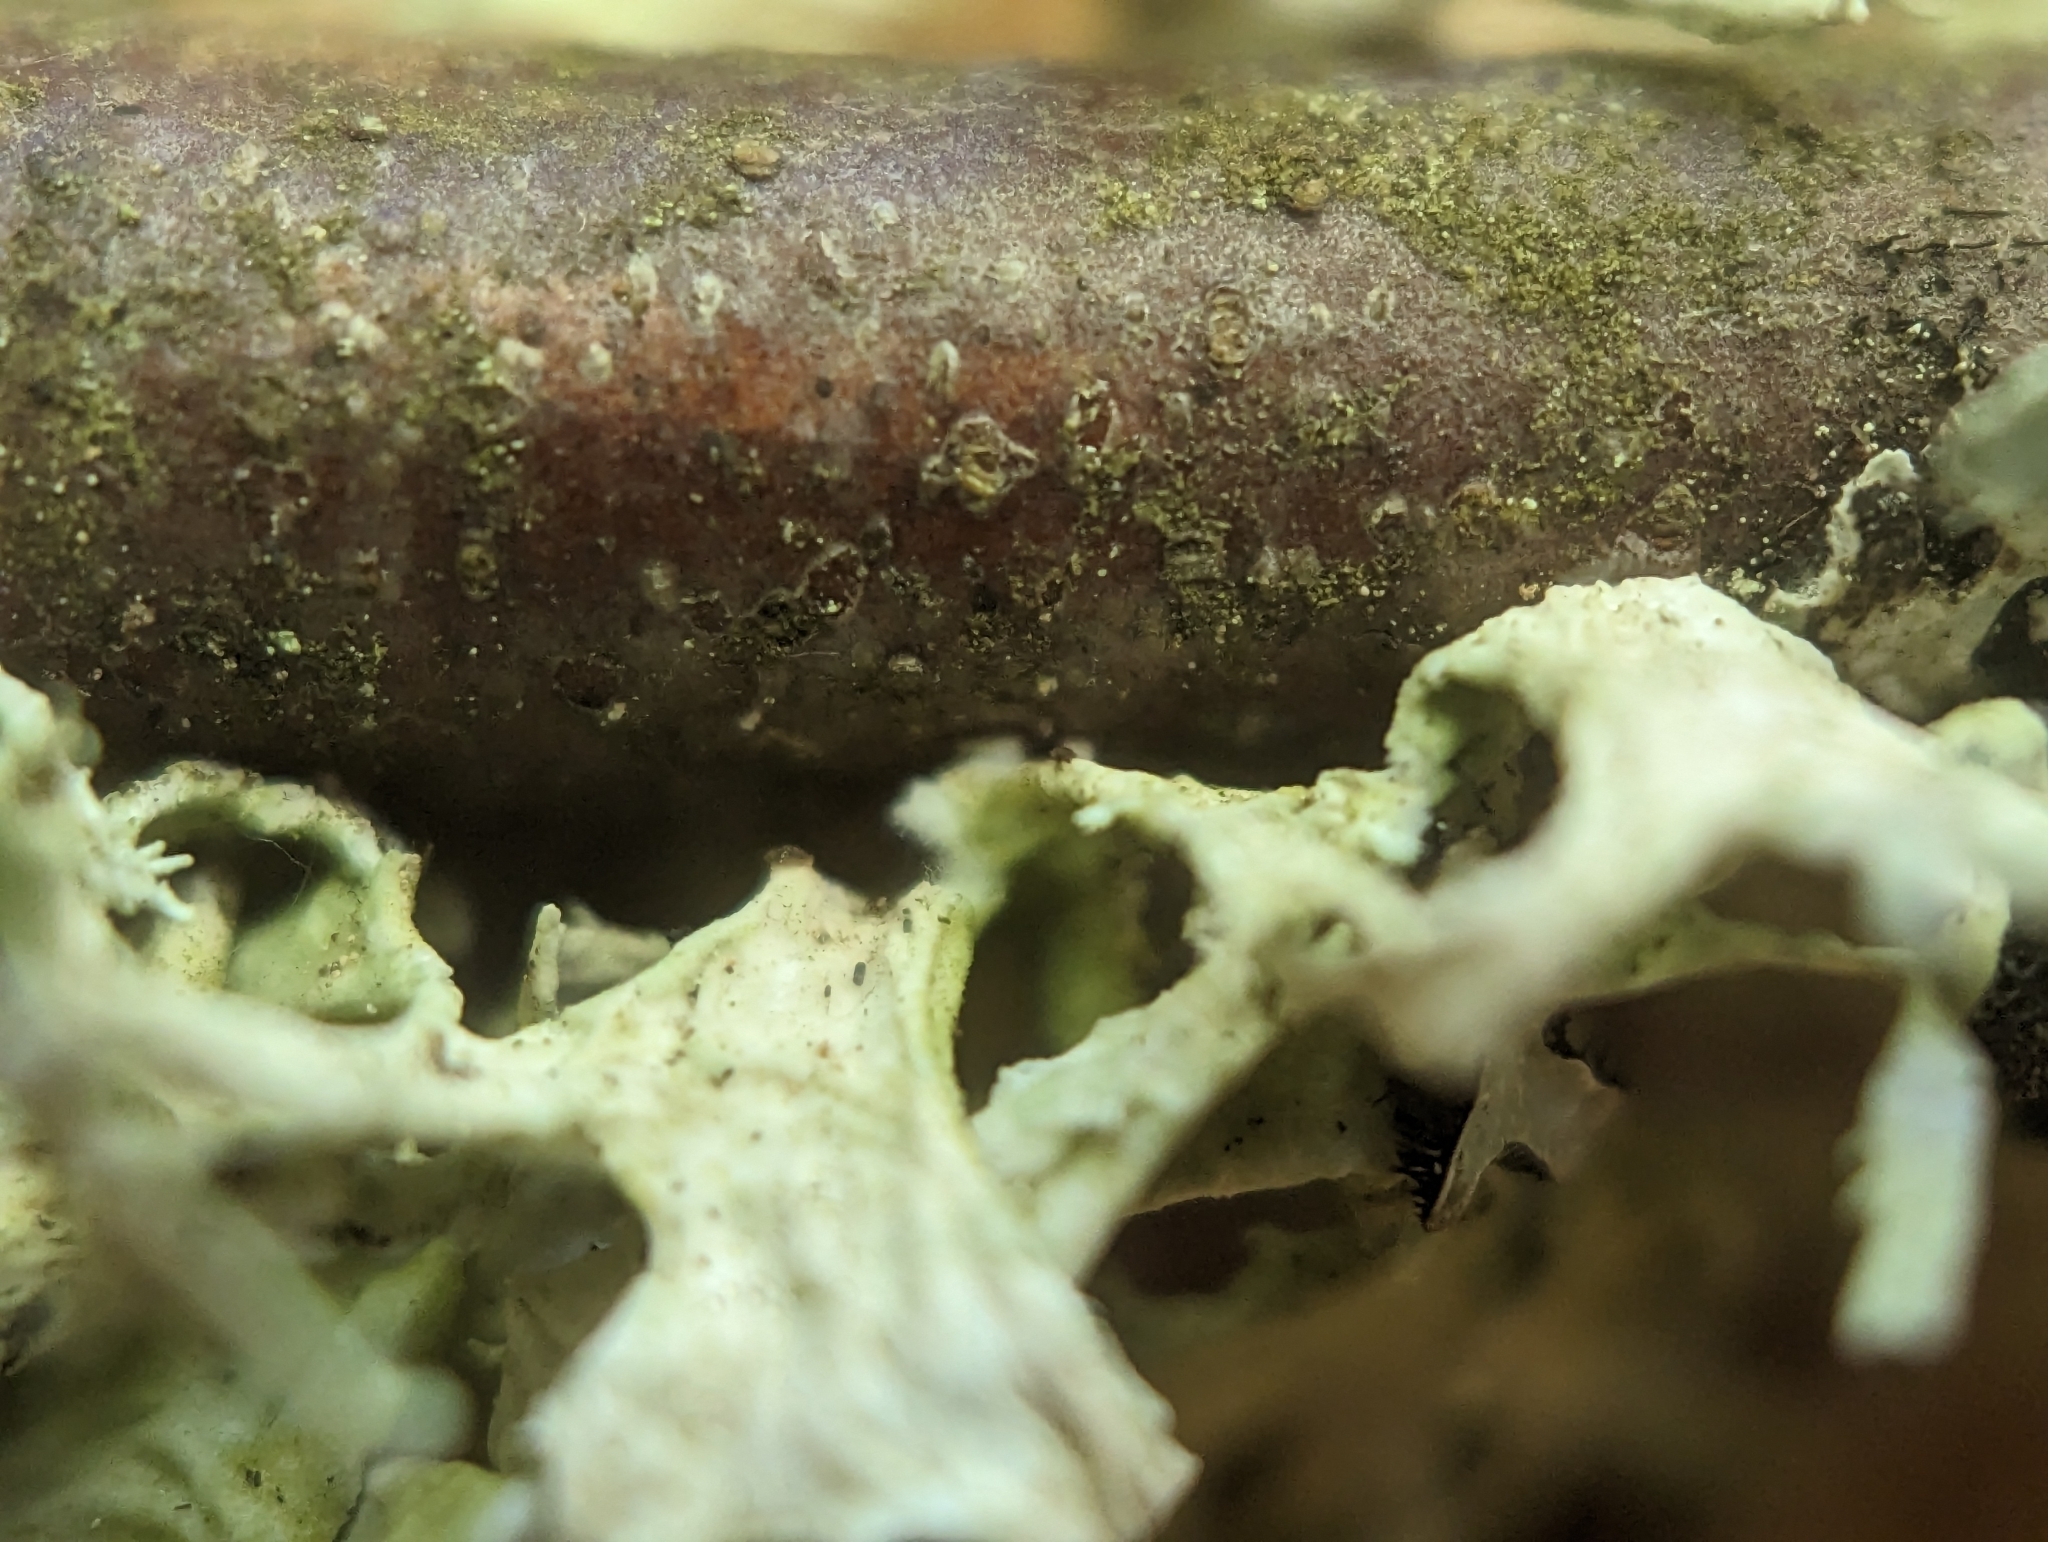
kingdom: Fungi
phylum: Ascomycota
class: Lecanoromycetes
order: Lecanorales
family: Parmeliaceae
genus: Evernia
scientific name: Evernia prunastri
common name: Oak moss
